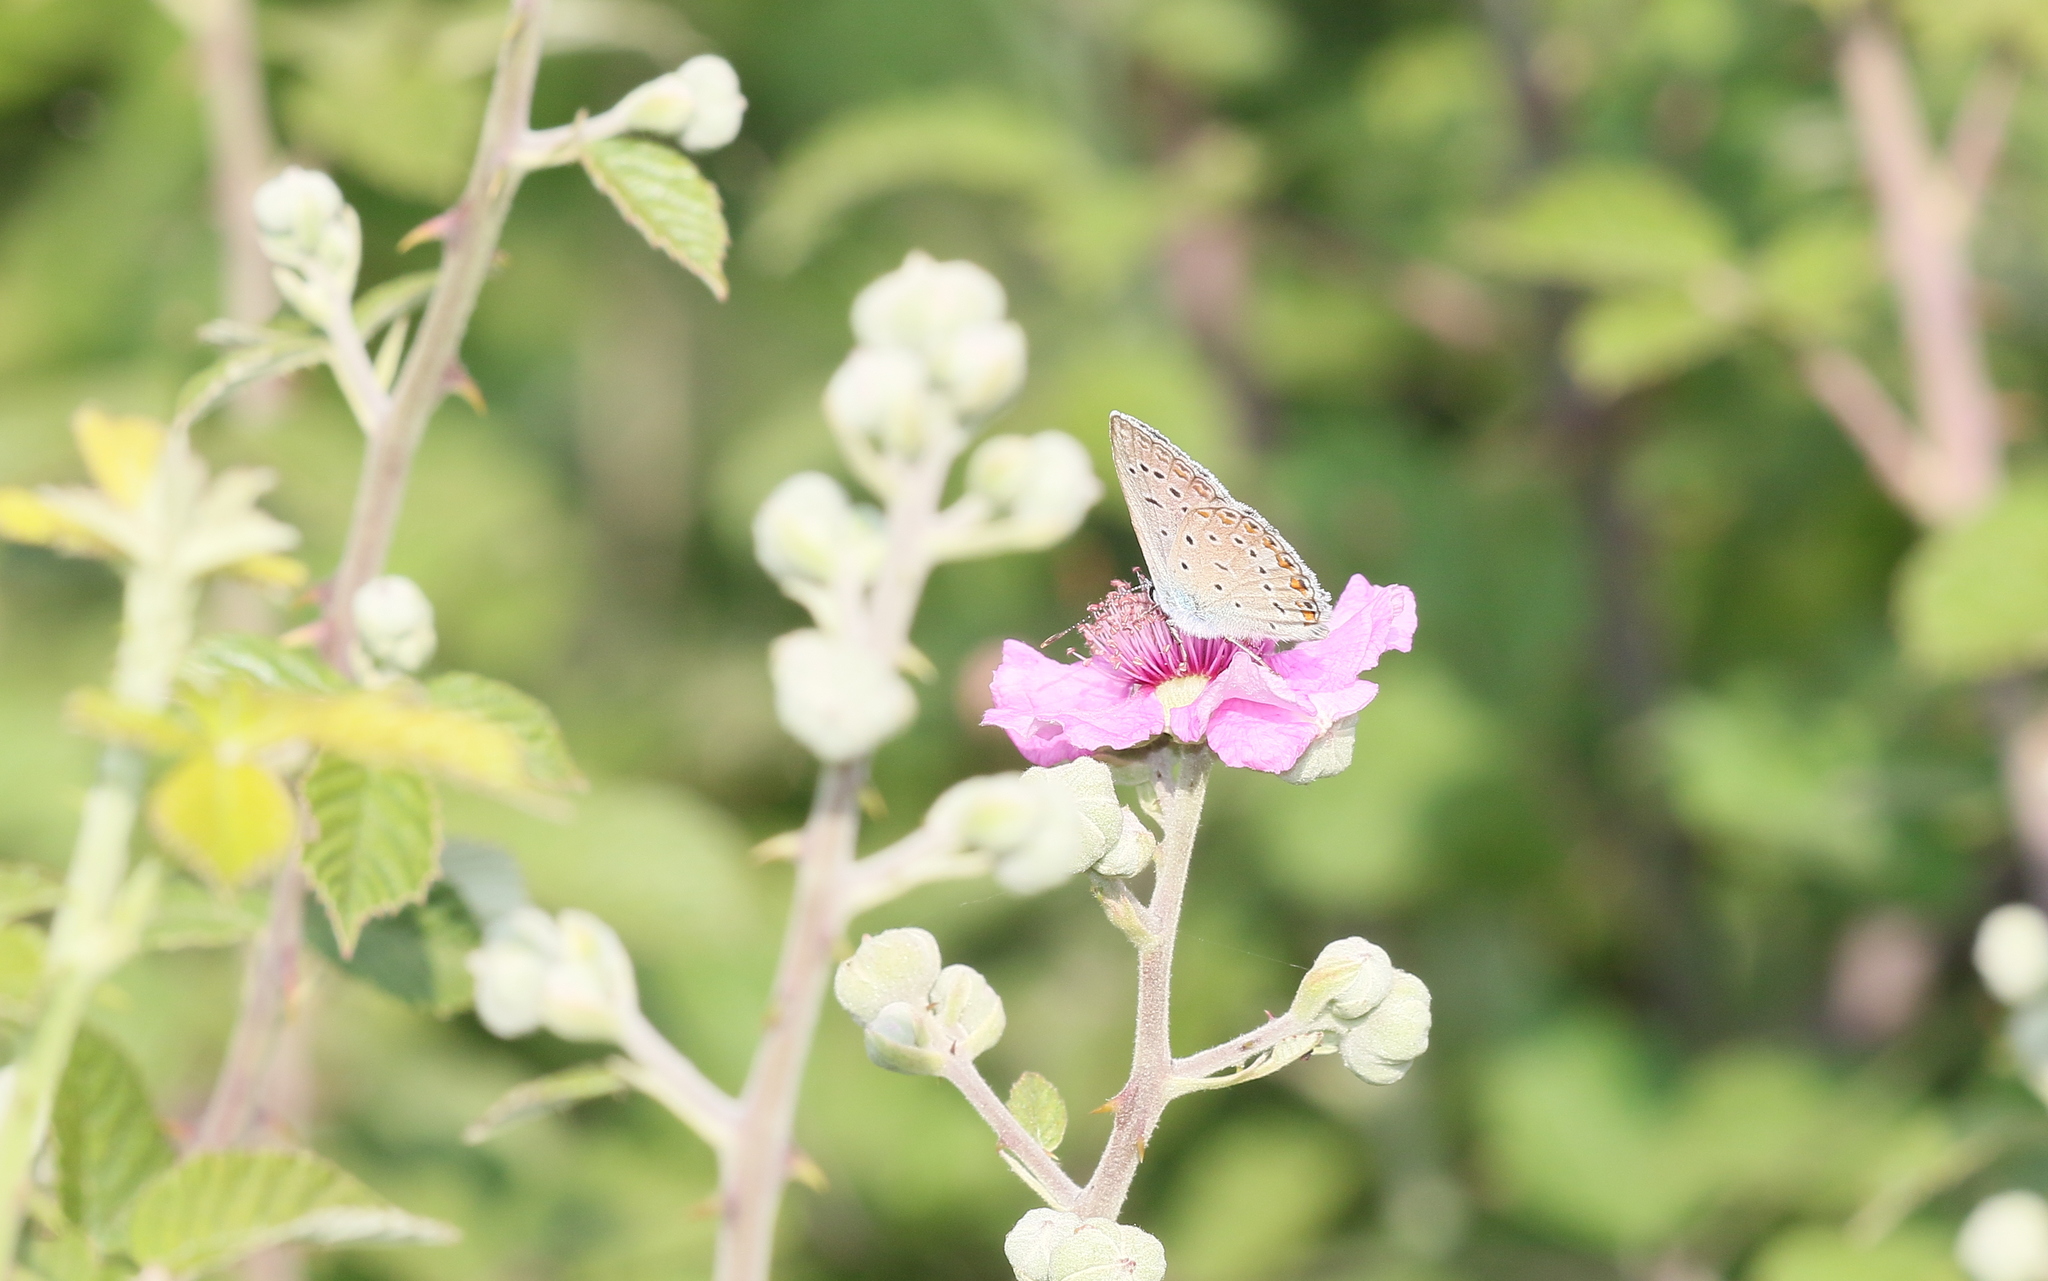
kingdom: Animalia
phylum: Arthropoda
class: Insecta
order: Lepidoptera
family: Lycaenidae
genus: Polyommatus
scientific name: Polyommatus icarus
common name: Common blue
